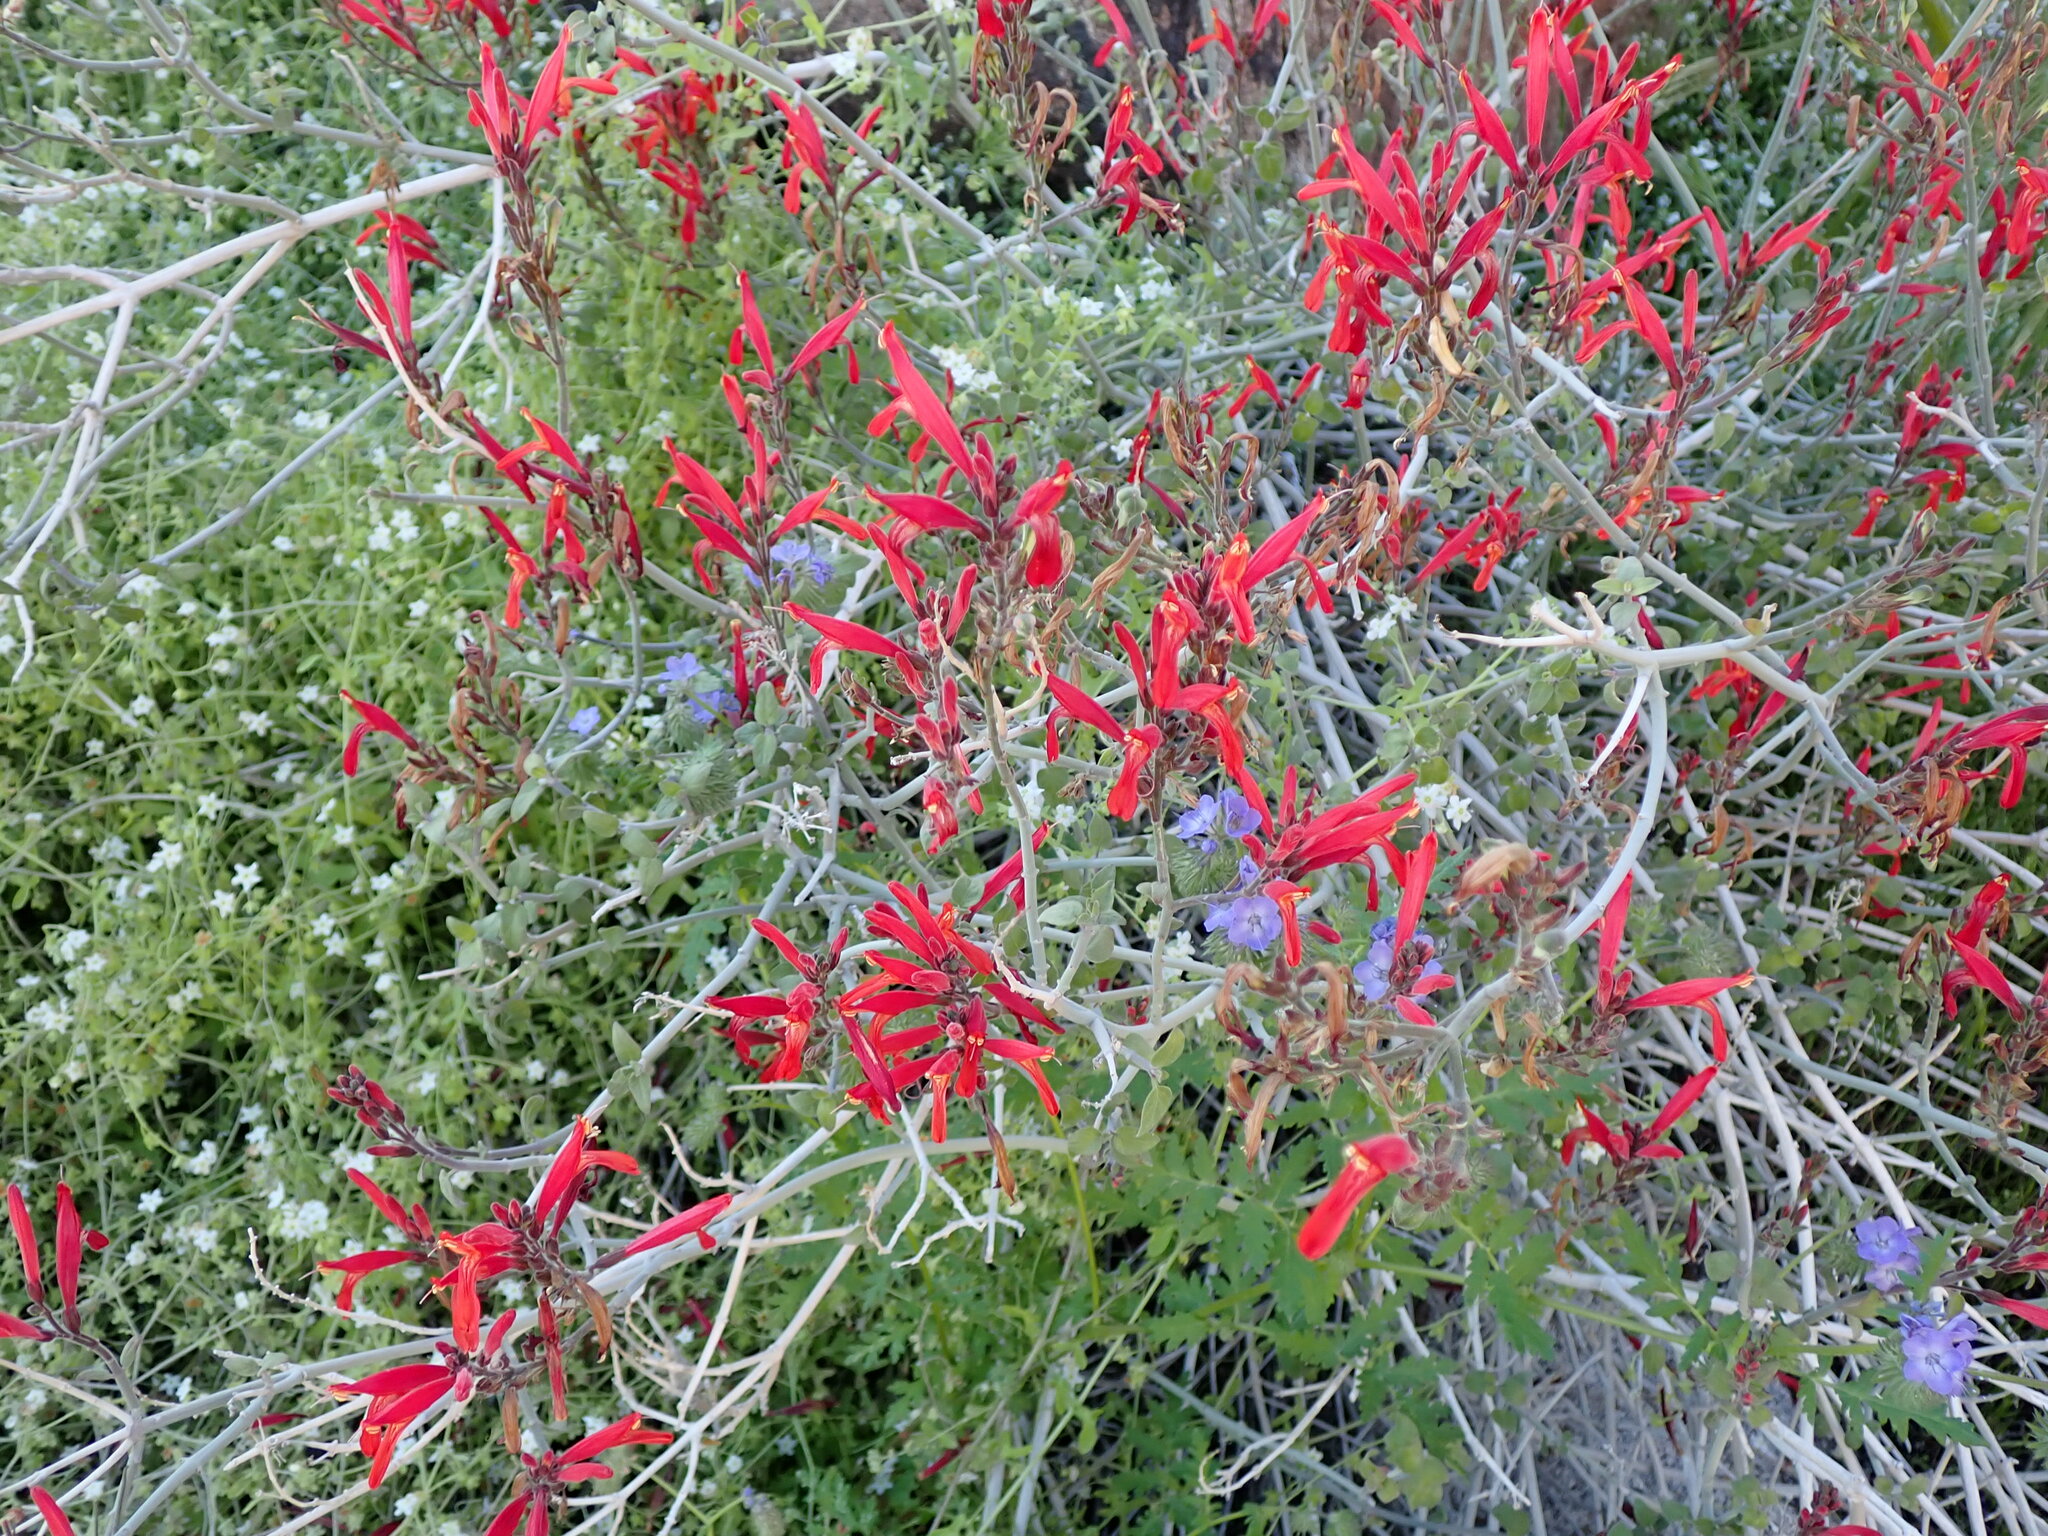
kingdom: Plantae
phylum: Tracheophyta
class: Magnoliopsida
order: Lamiales
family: Acanthaceae
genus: Justicia
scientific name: Justicia californica
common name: Chuparosa-honeysuckle
